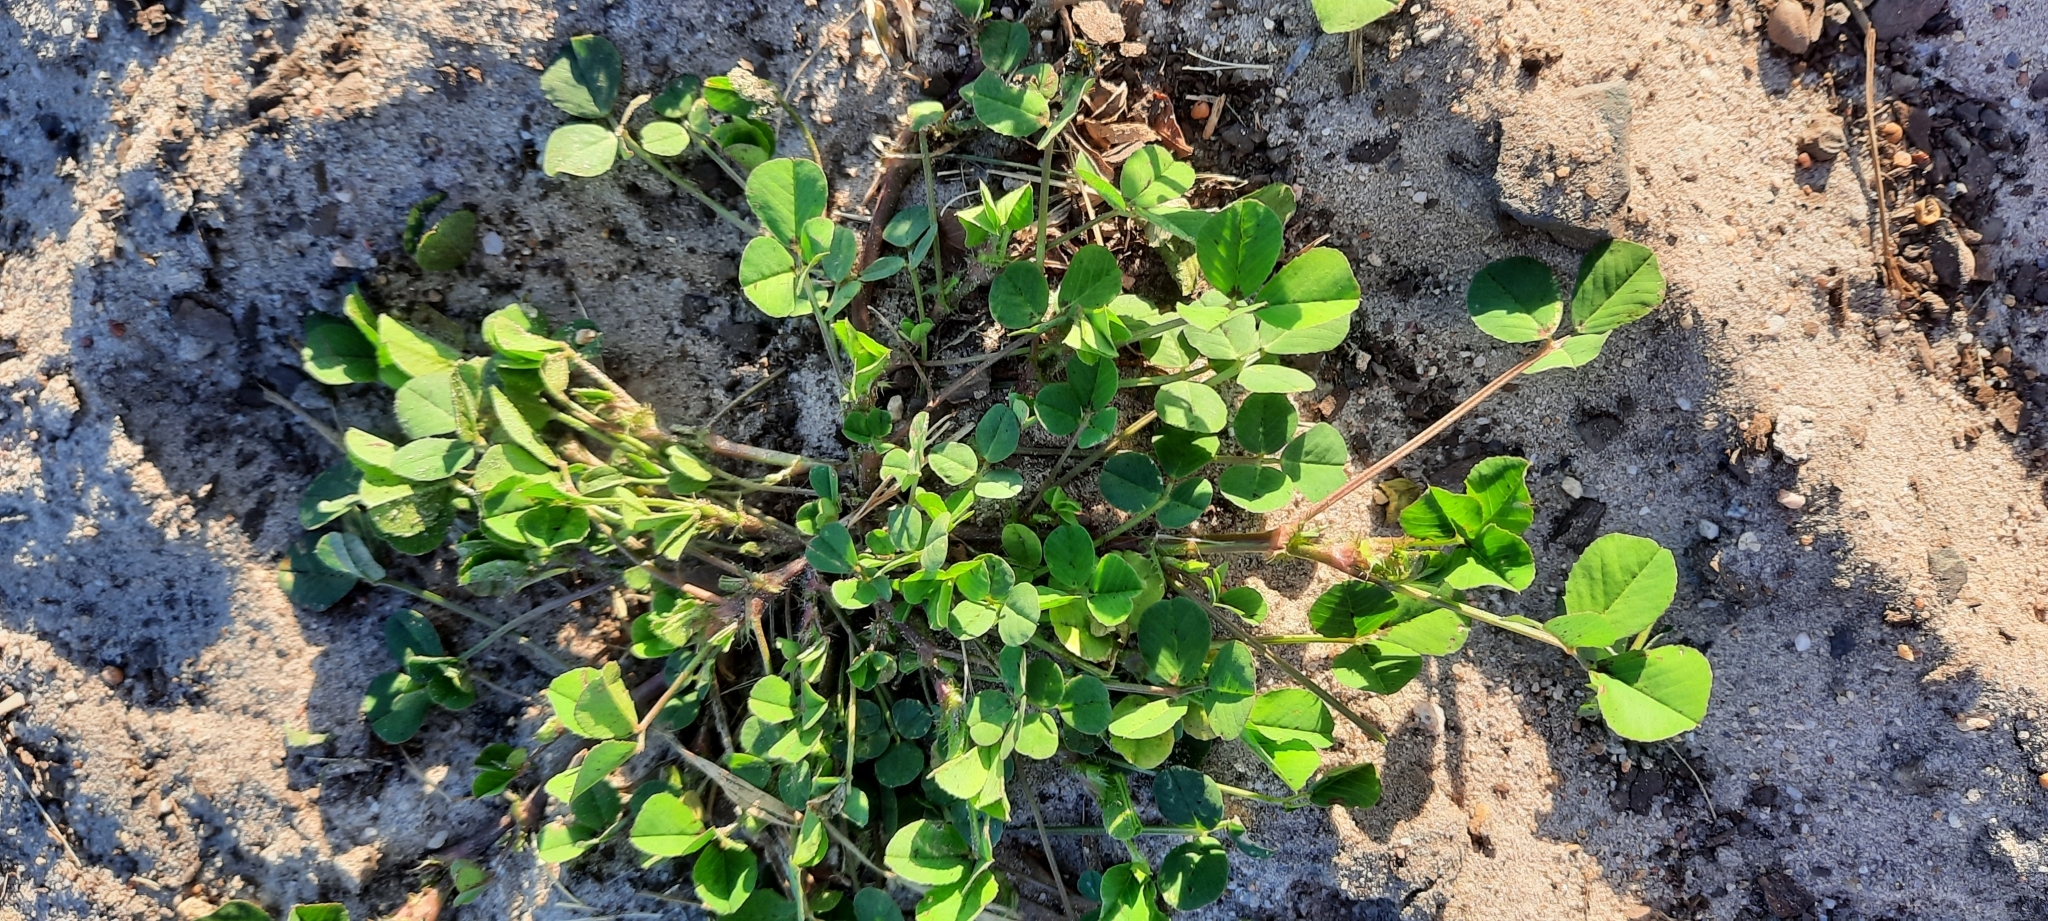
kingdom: Plantae
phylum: Tracheophyta
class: Magnoliopsida
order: Fabales
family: Fabaceae
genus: Trifolium
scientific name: Trifolium repens
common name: White clover
